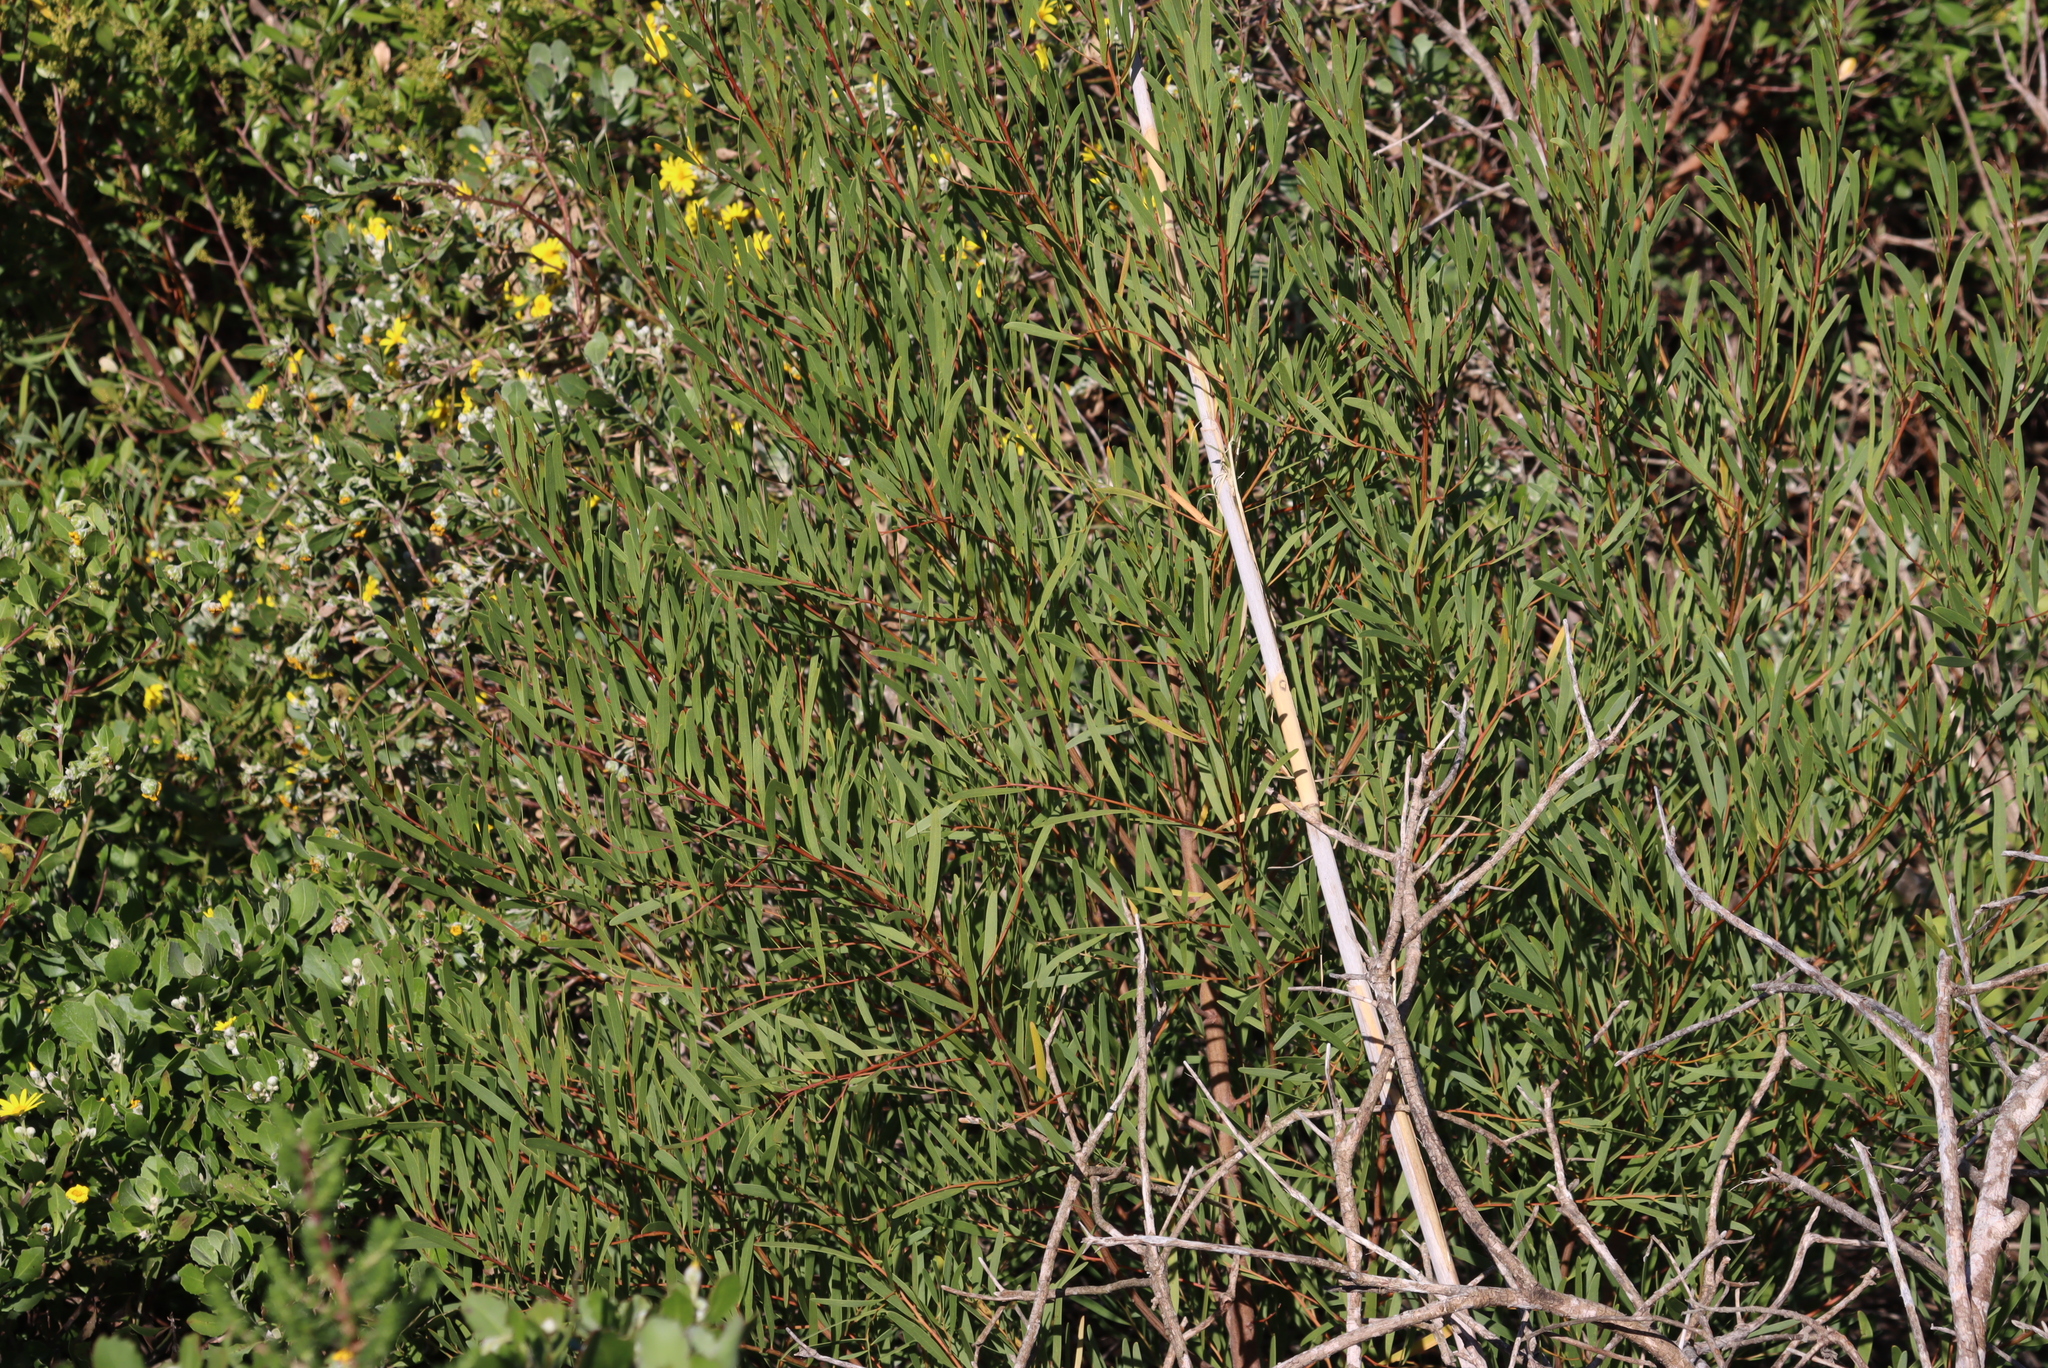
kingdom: Plantae
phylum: Tracheophyta
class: Magnoliopsida
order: Fabales
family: Fabaceae
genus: Acacia
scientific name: Acacia cyclops
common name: Coastal wattle
